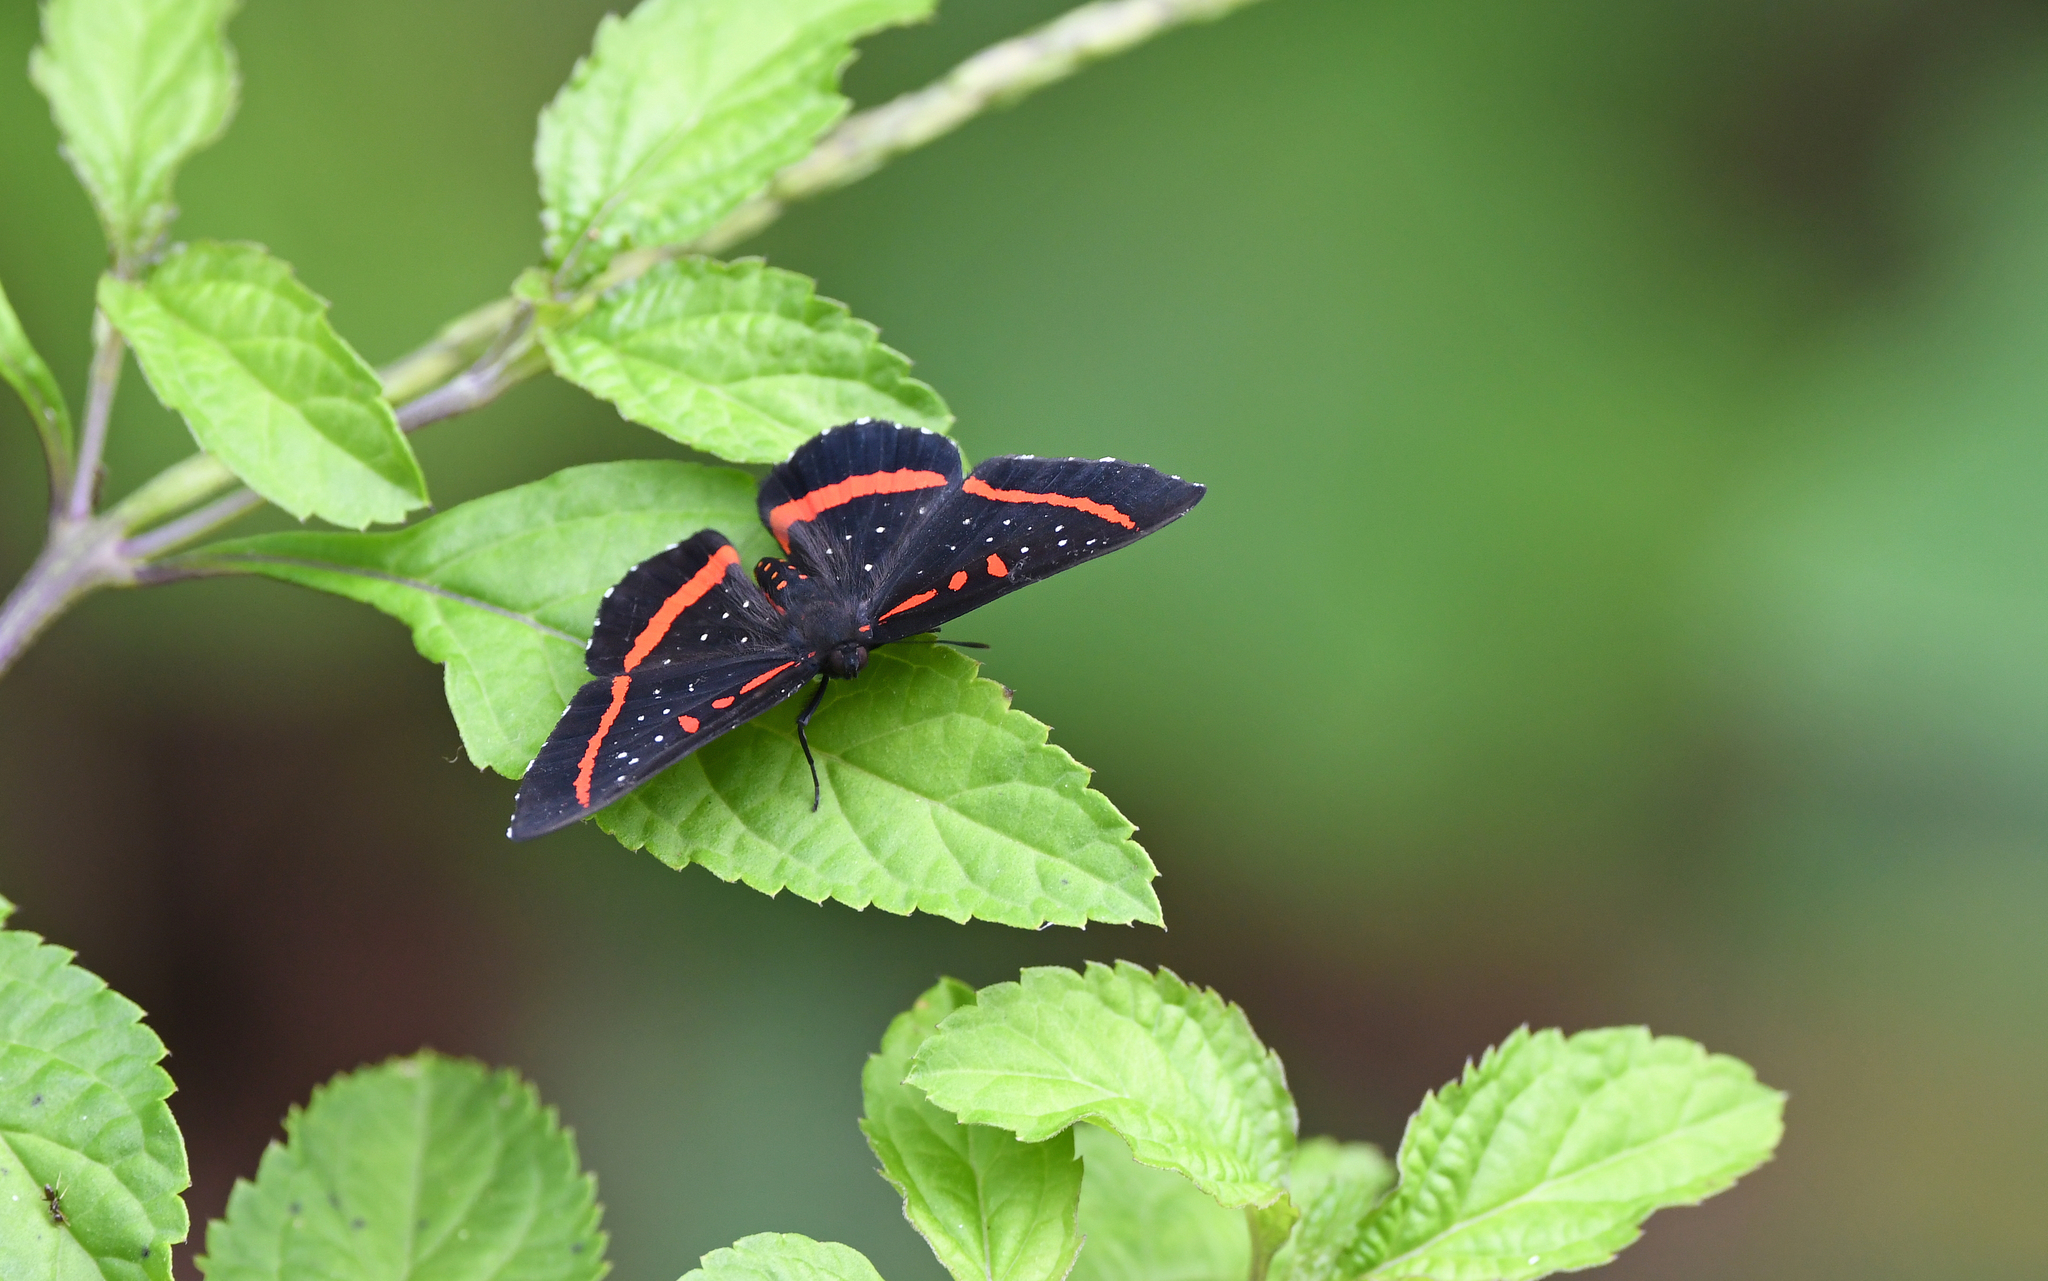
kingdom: Animalia
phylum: Arthropoda
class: Insecta
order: Lepidoptera
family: Riodinidae
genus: Amarynthis
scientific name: Amarynthis meneria
